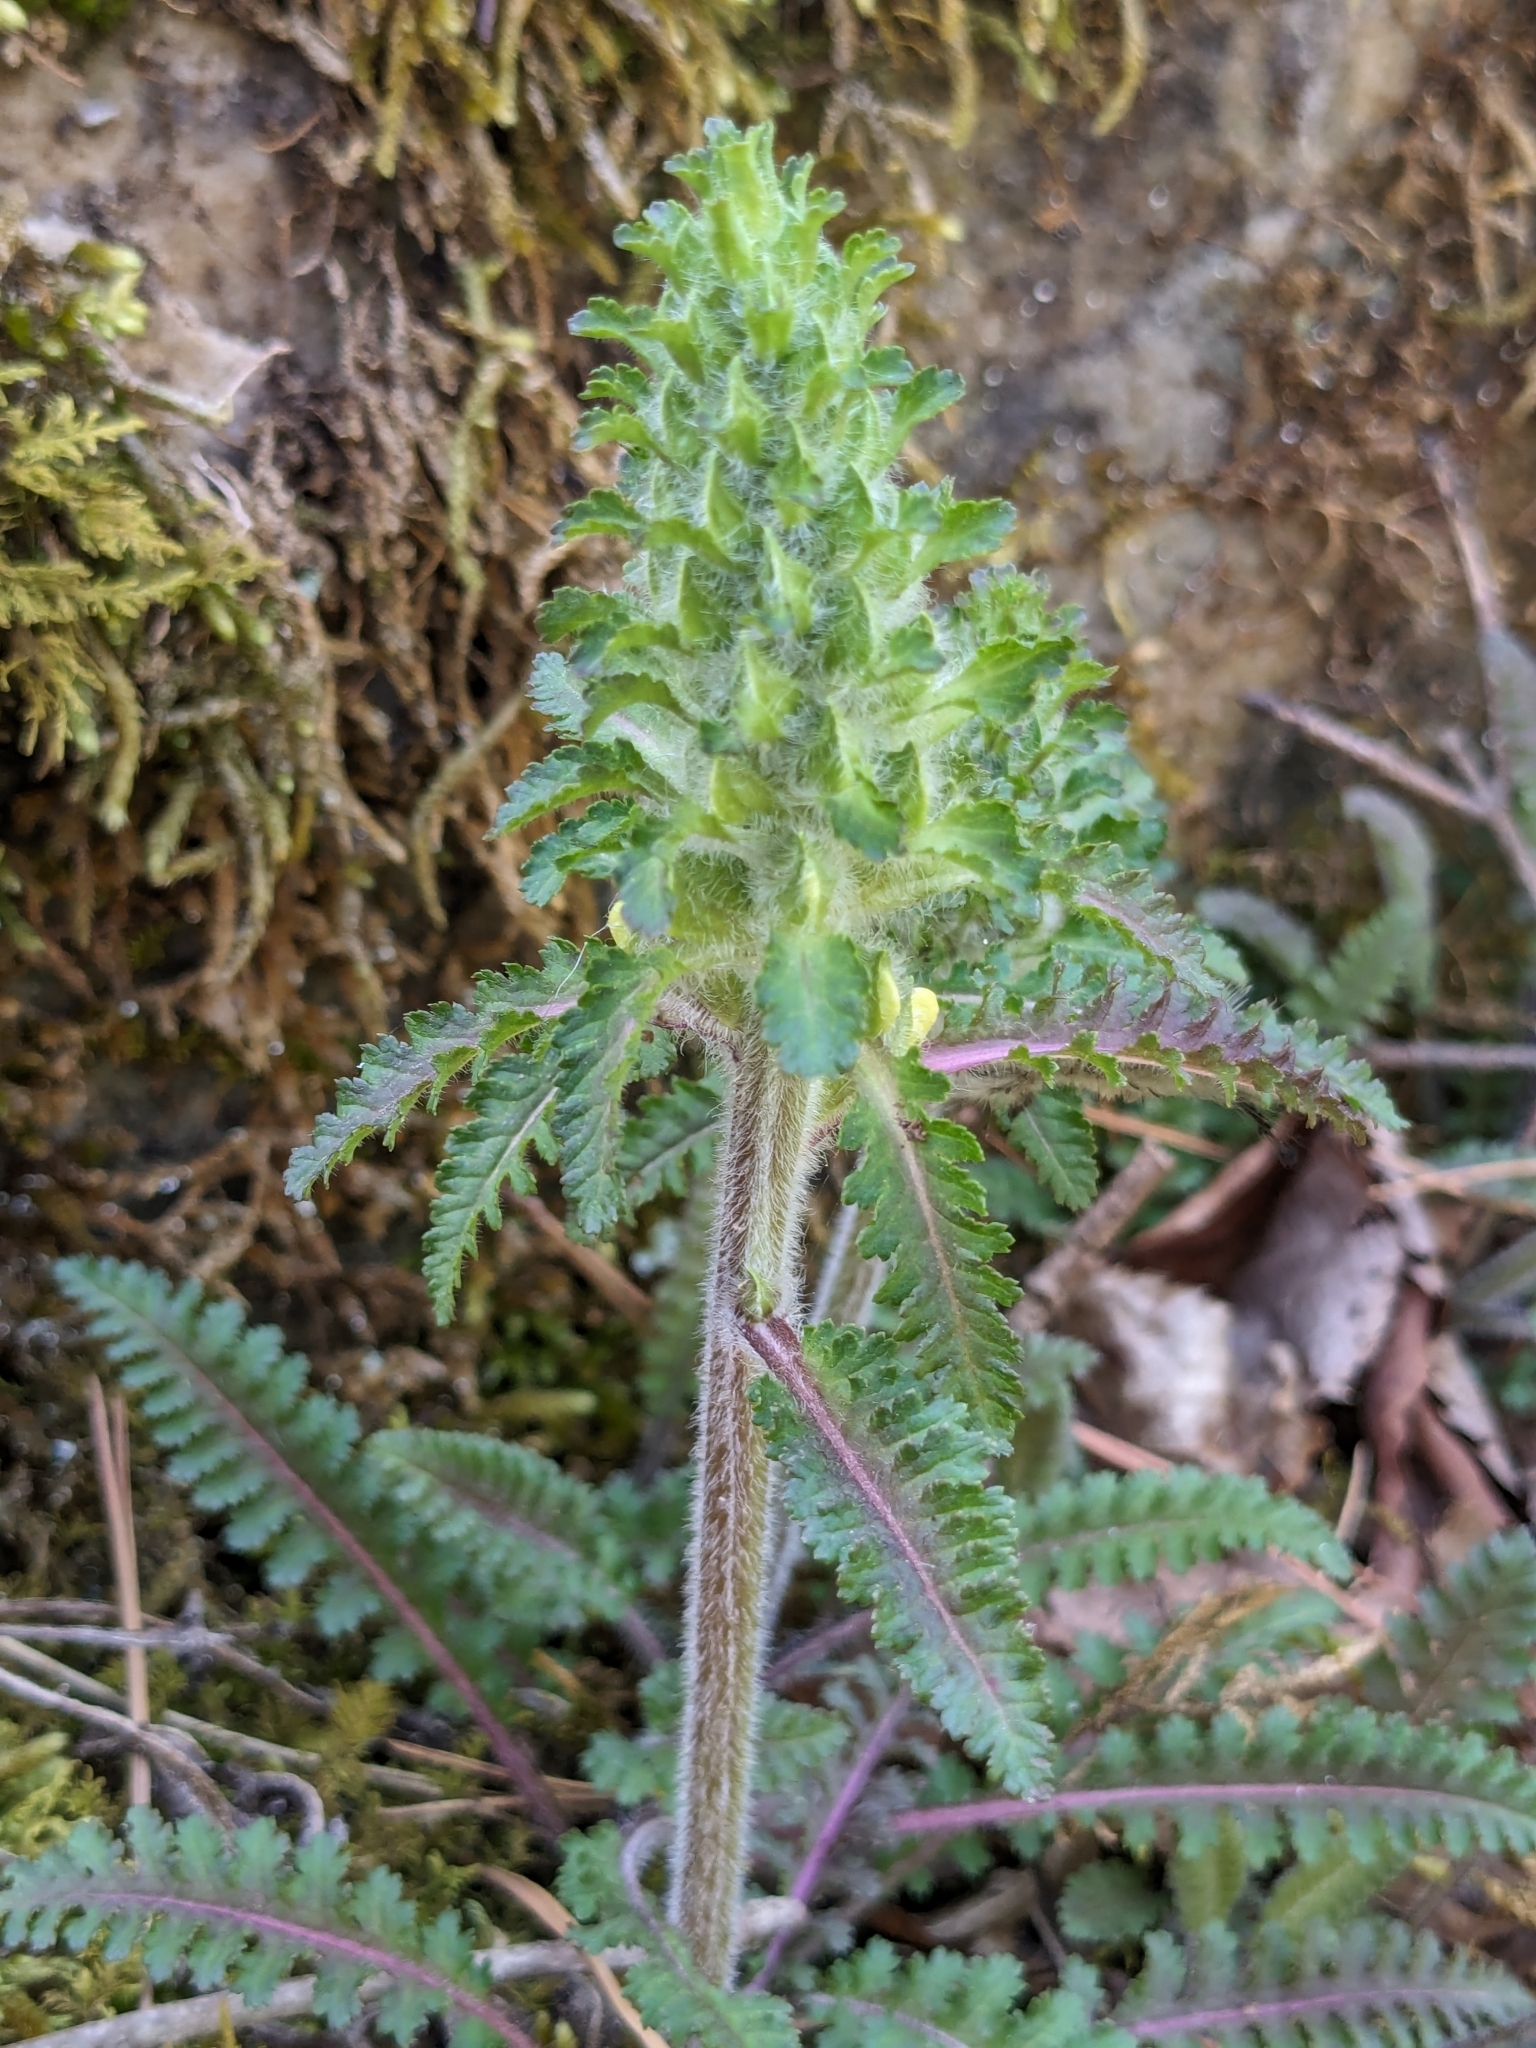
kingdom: Plantae
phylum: Tracheophyta
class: Magnoliopsida
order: Lamiales
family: Orobanchaceae
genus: Pedicularis
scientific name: Pedicularis canadensis
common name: Early lousewort
